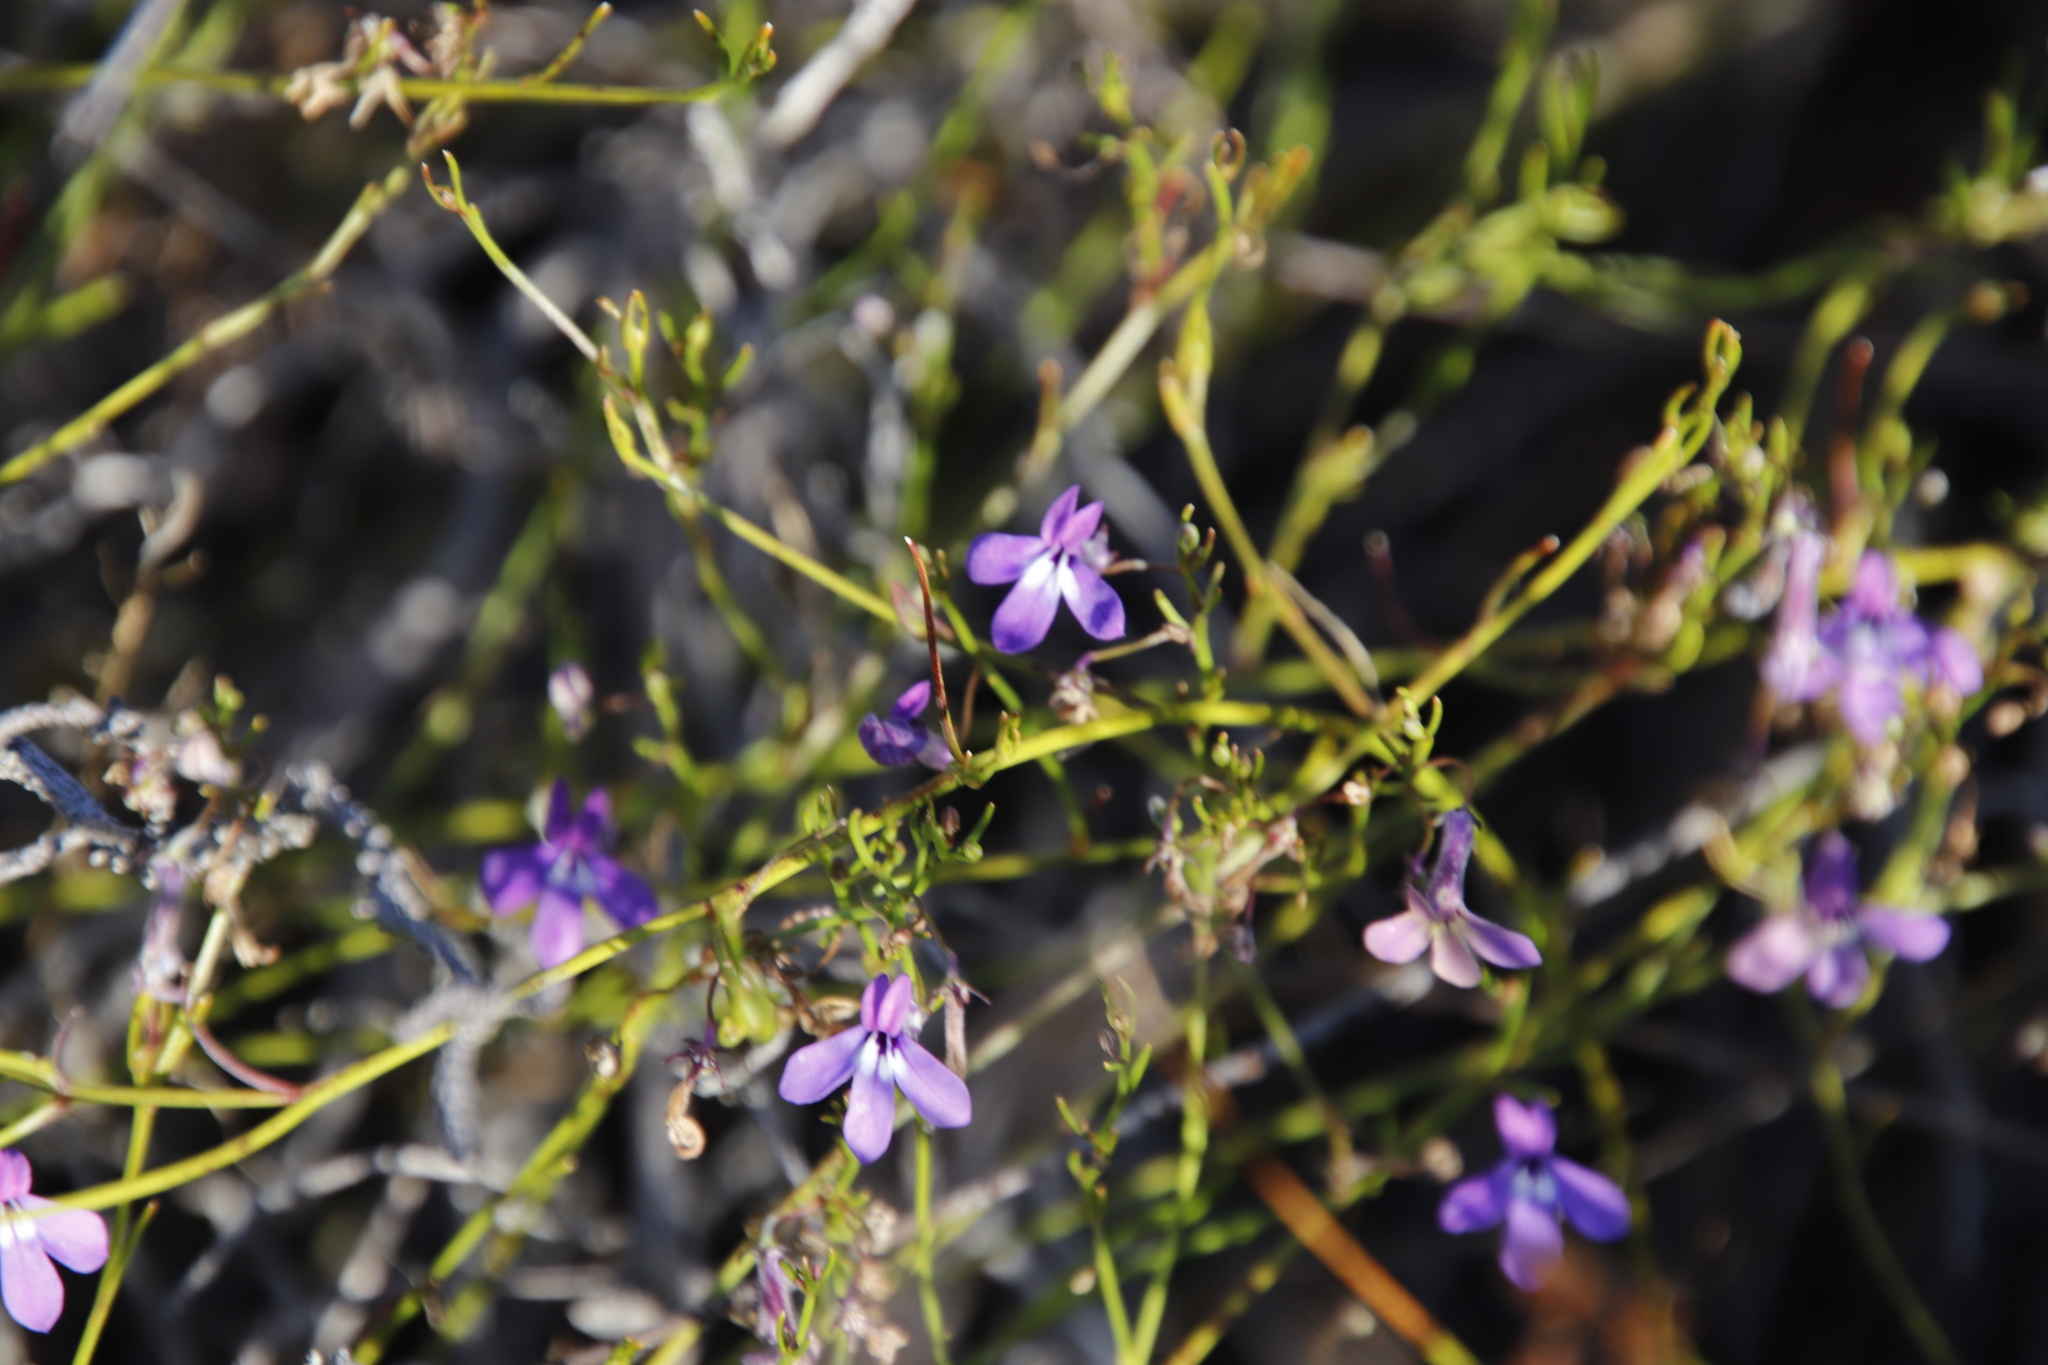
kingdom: Plantae
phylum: Tracheophyta
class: Magnoliopsida
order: Asterales
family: Campanulaceae
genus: Lobelia
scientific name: Lobelia setacea
